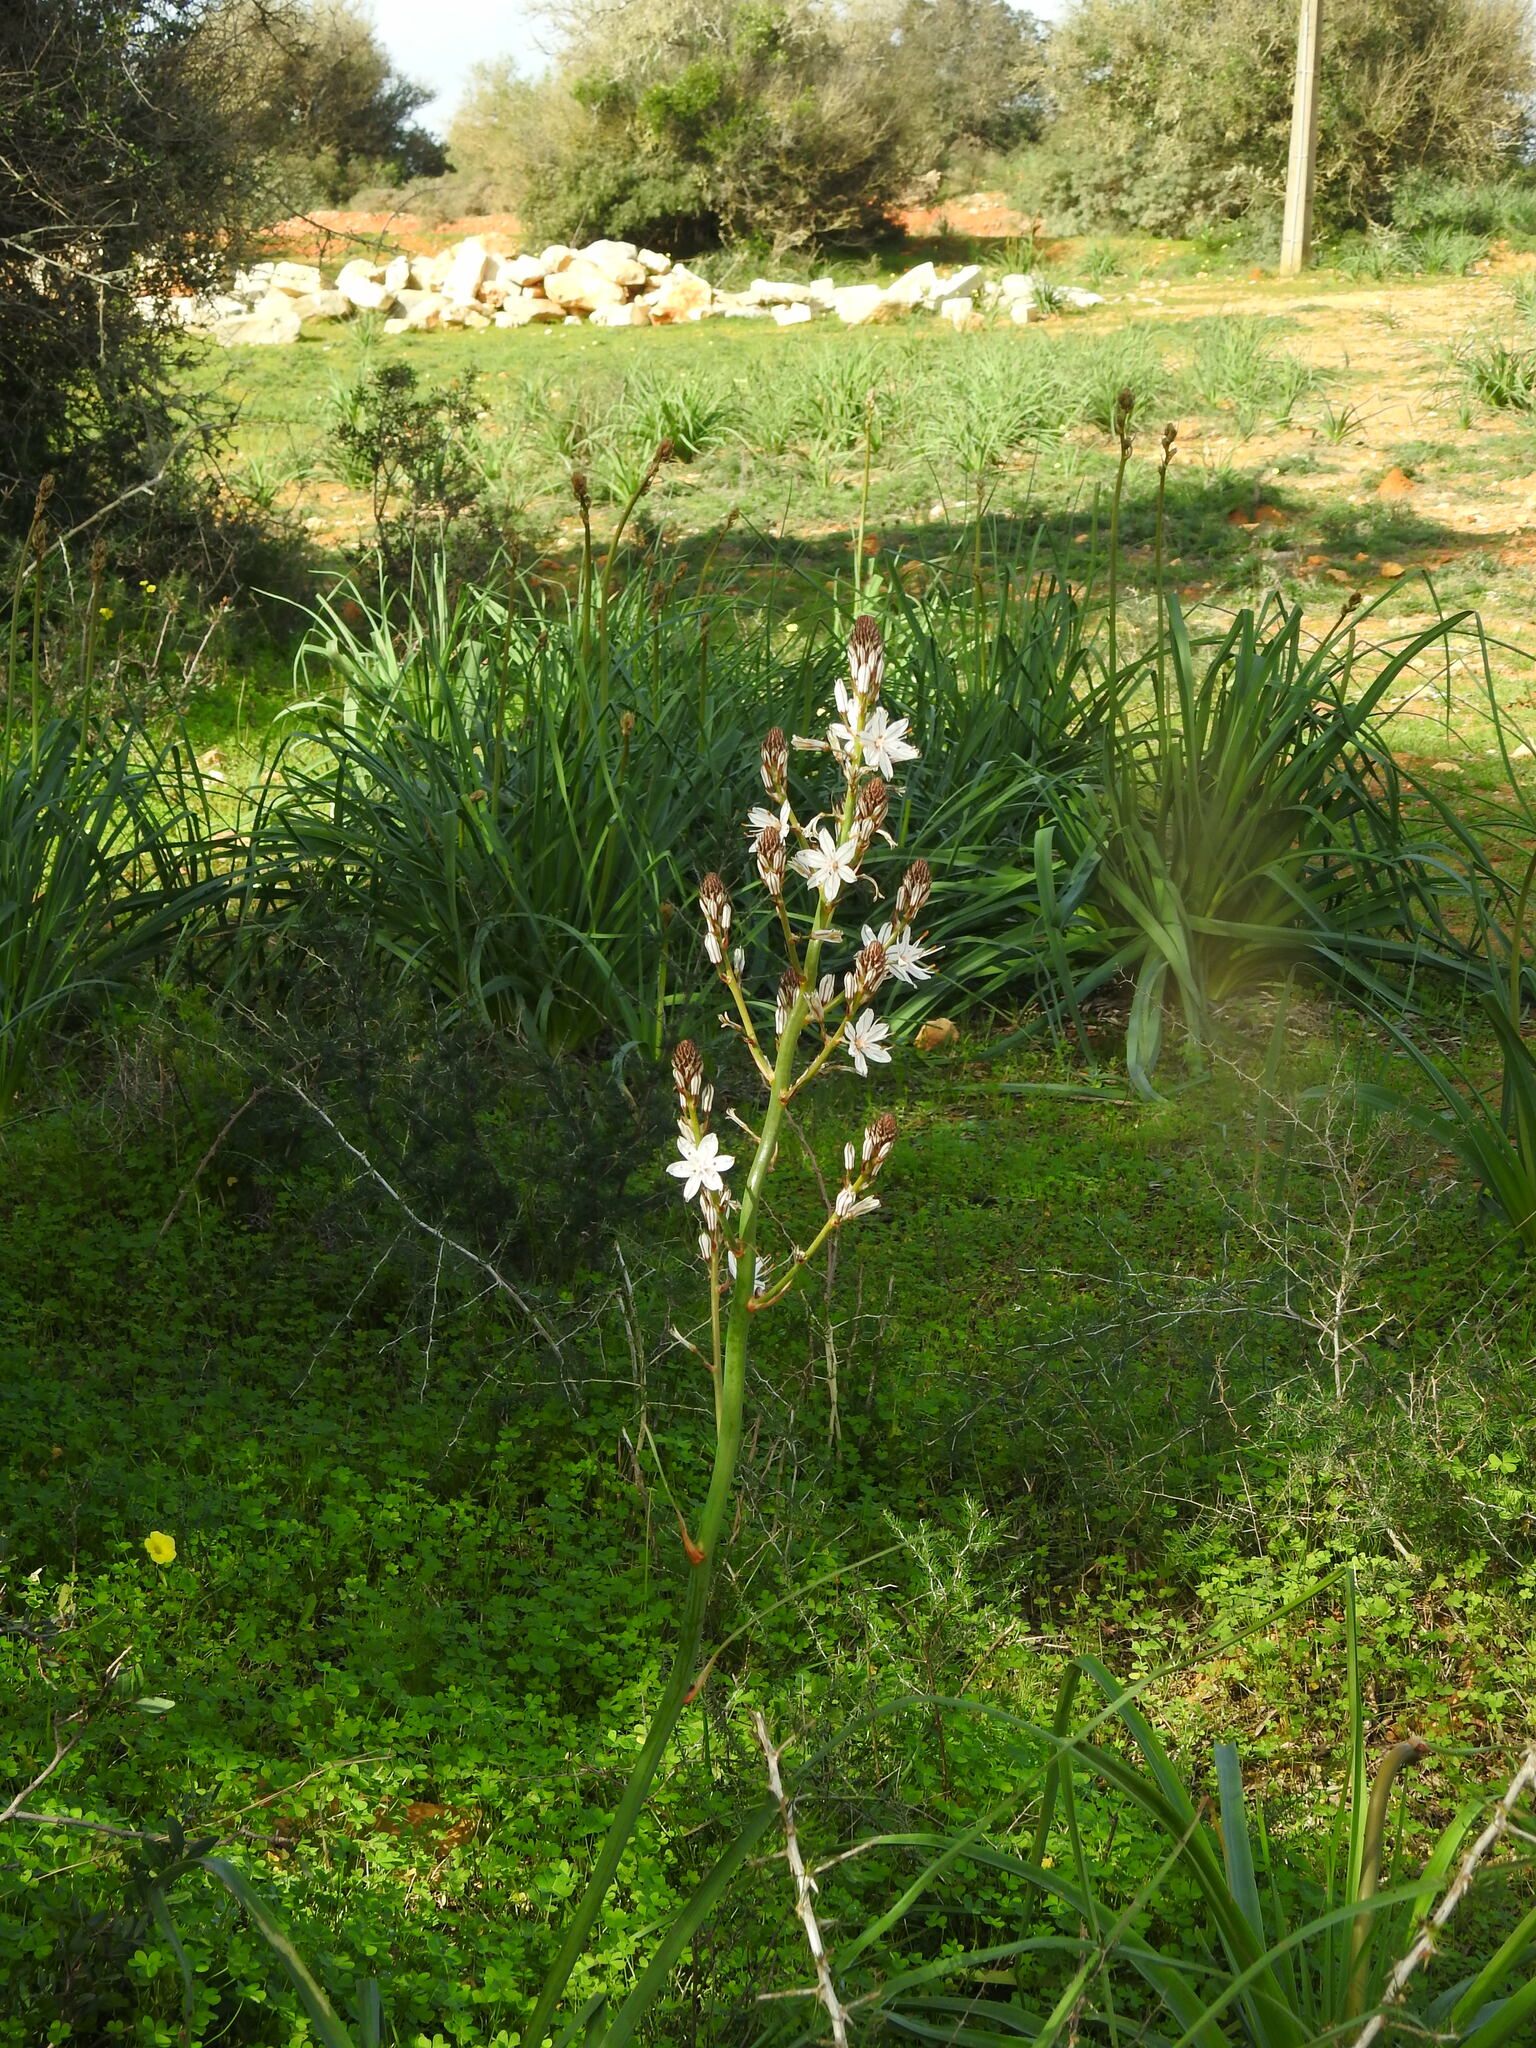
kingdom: Plantae
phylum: Tracheophyta
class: Liliopsida
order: Asparagales
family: Asphodelaceae
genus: Asphodelus
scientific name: Asphodelus ramosus
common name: Silverrod
